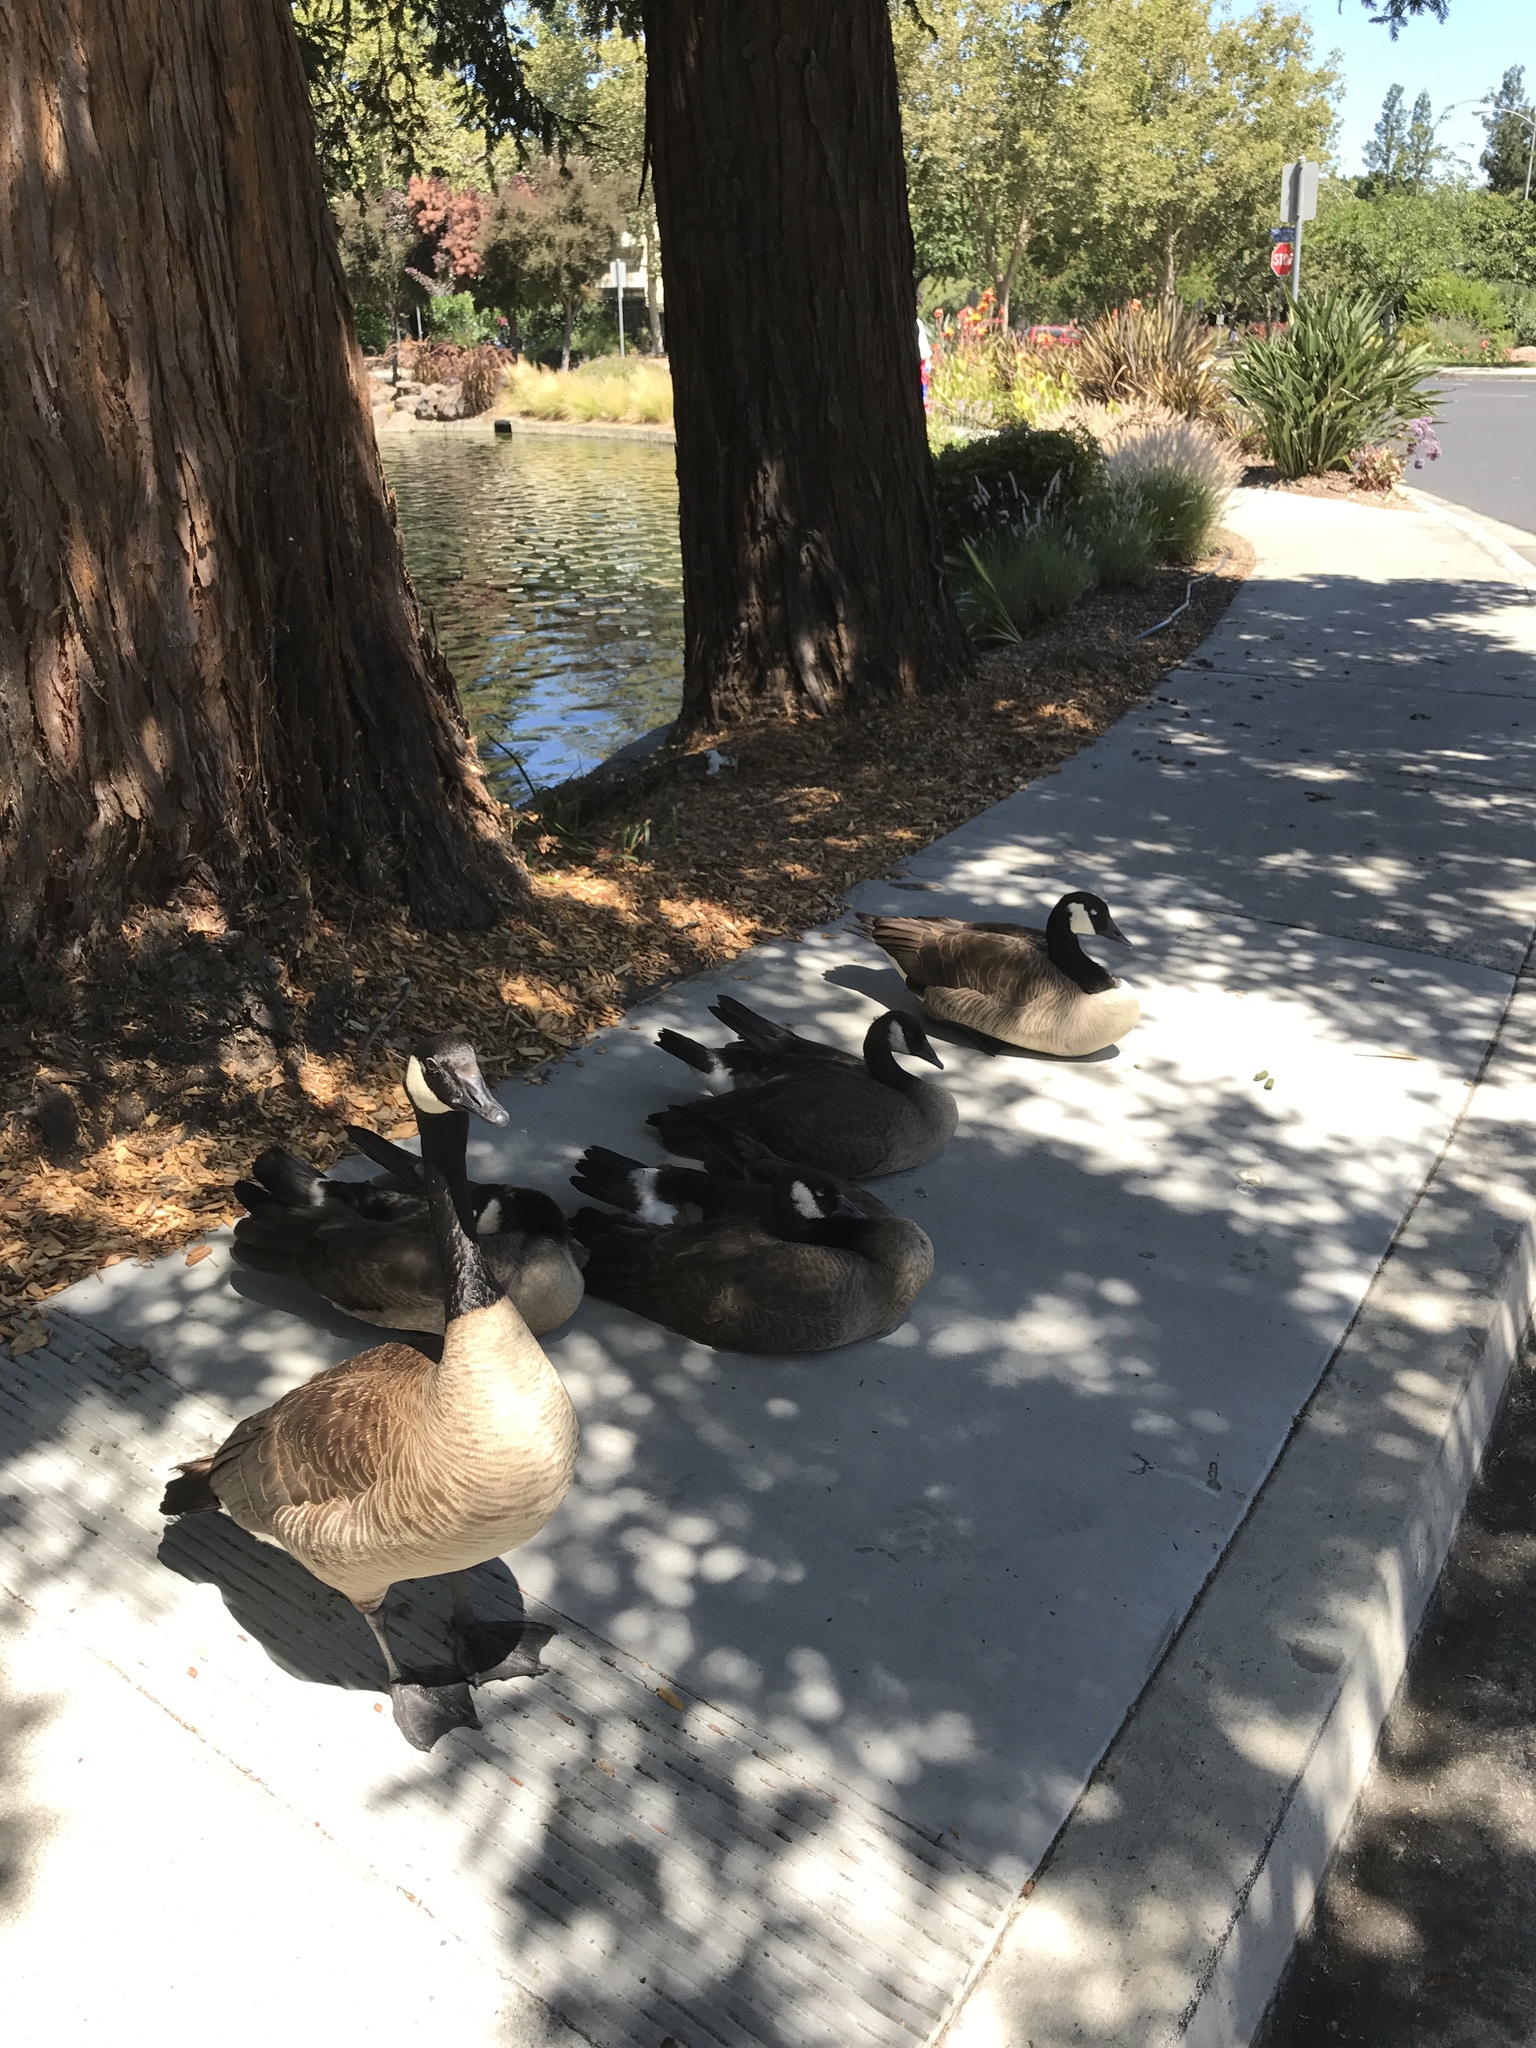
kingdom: Animalia
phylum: Chordata
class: Aves
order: Anseriformes
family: Anatidae
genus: Branta
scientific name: Branta canadensis
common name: Canada goose
